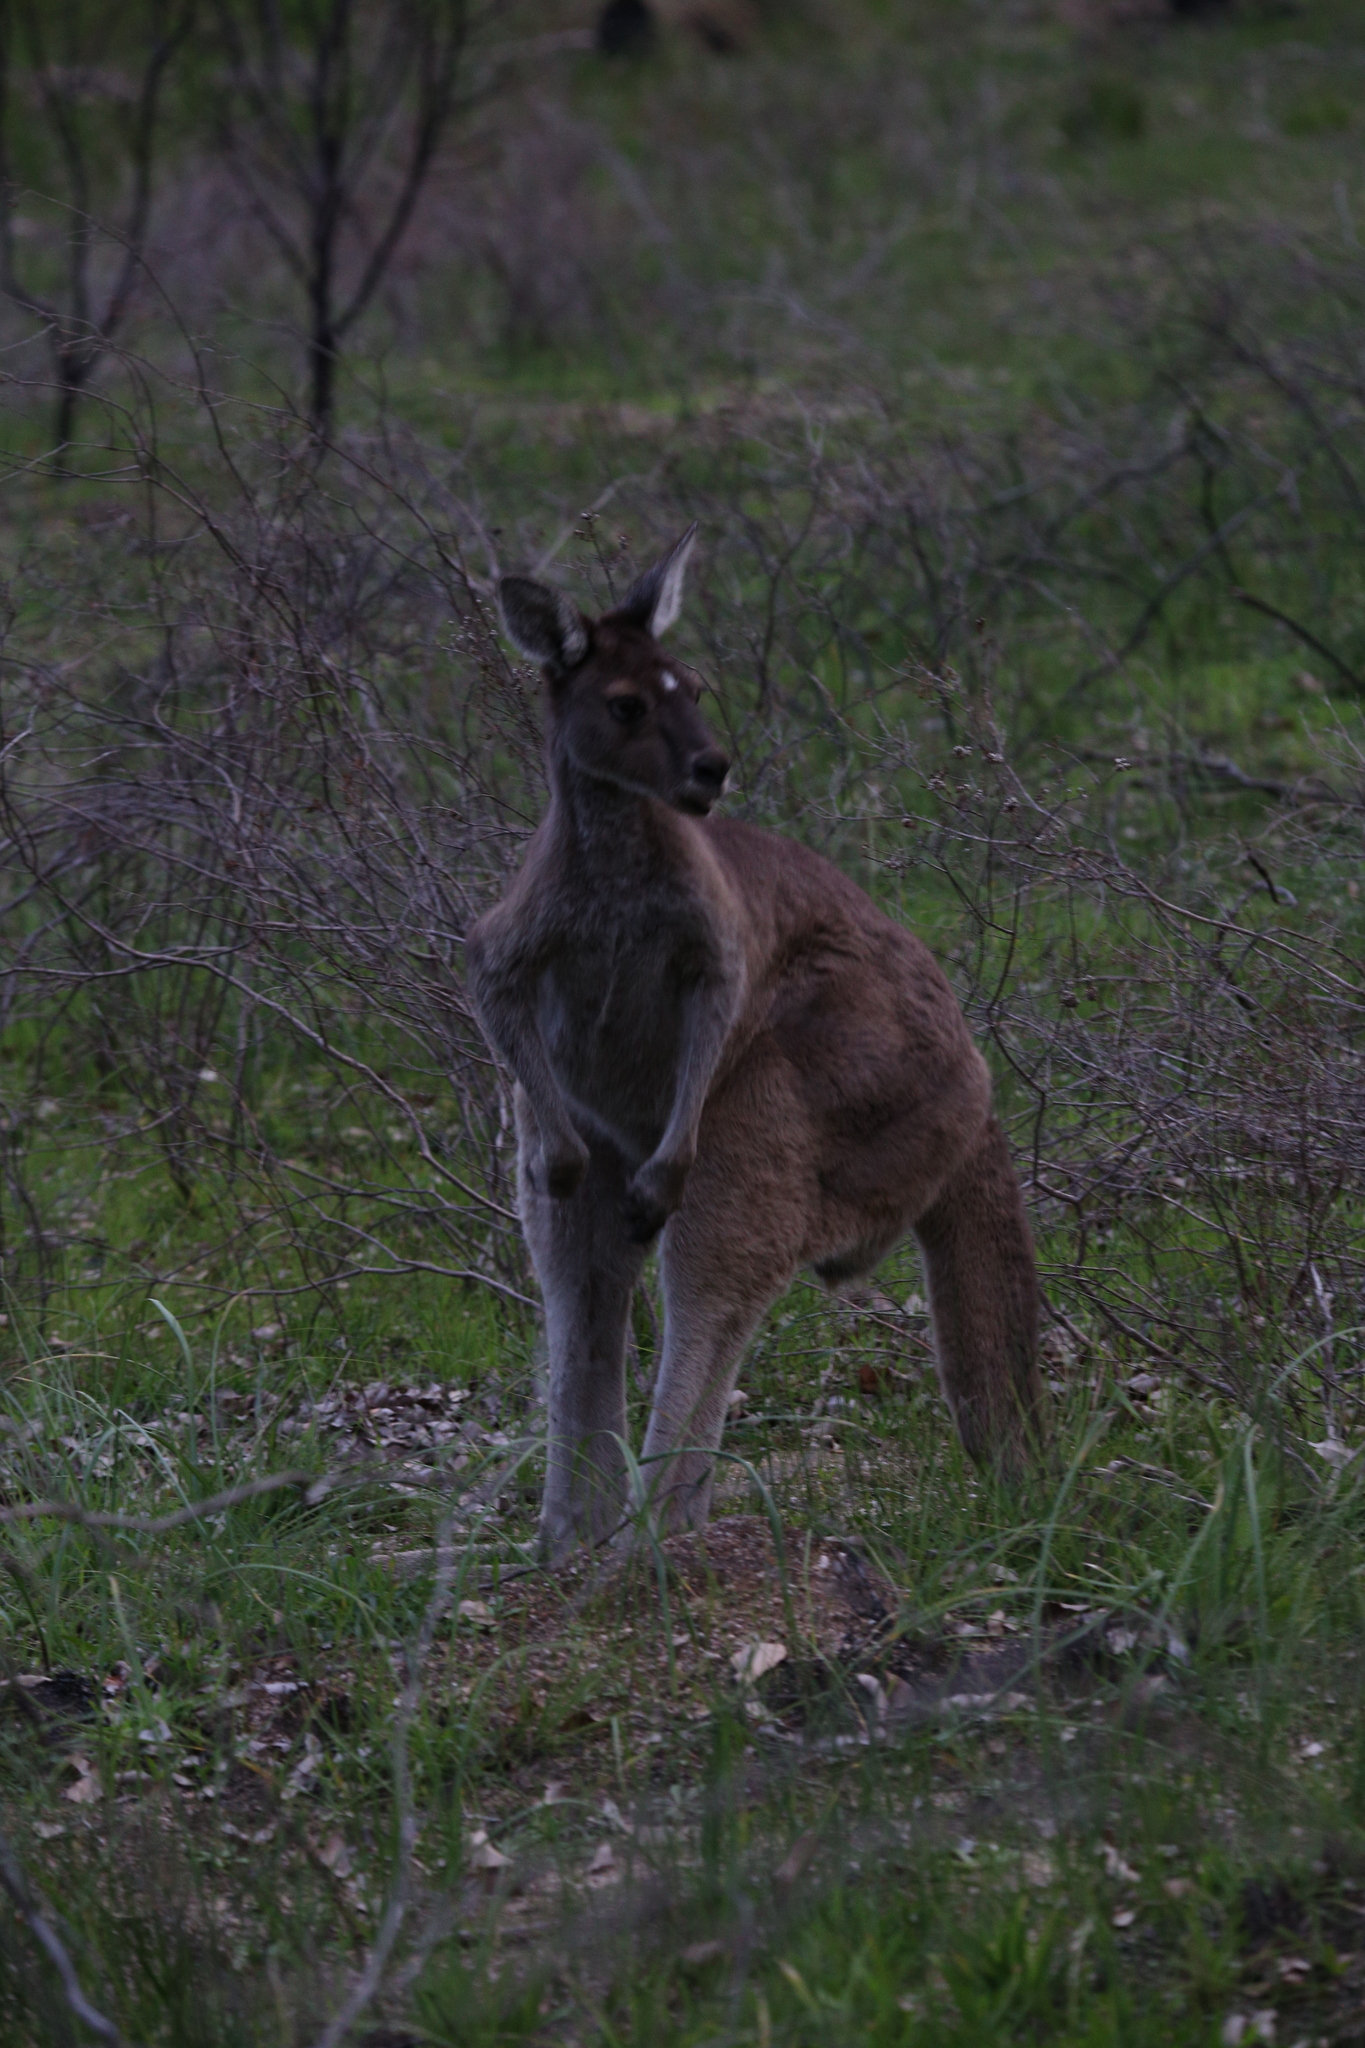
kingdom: Animalia
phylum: Chordata
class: Mammalia
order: Diprotodontia
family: Macropodidae
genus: Macropus
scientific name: Macropus fuliginosus
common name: Western grey kangaroo
